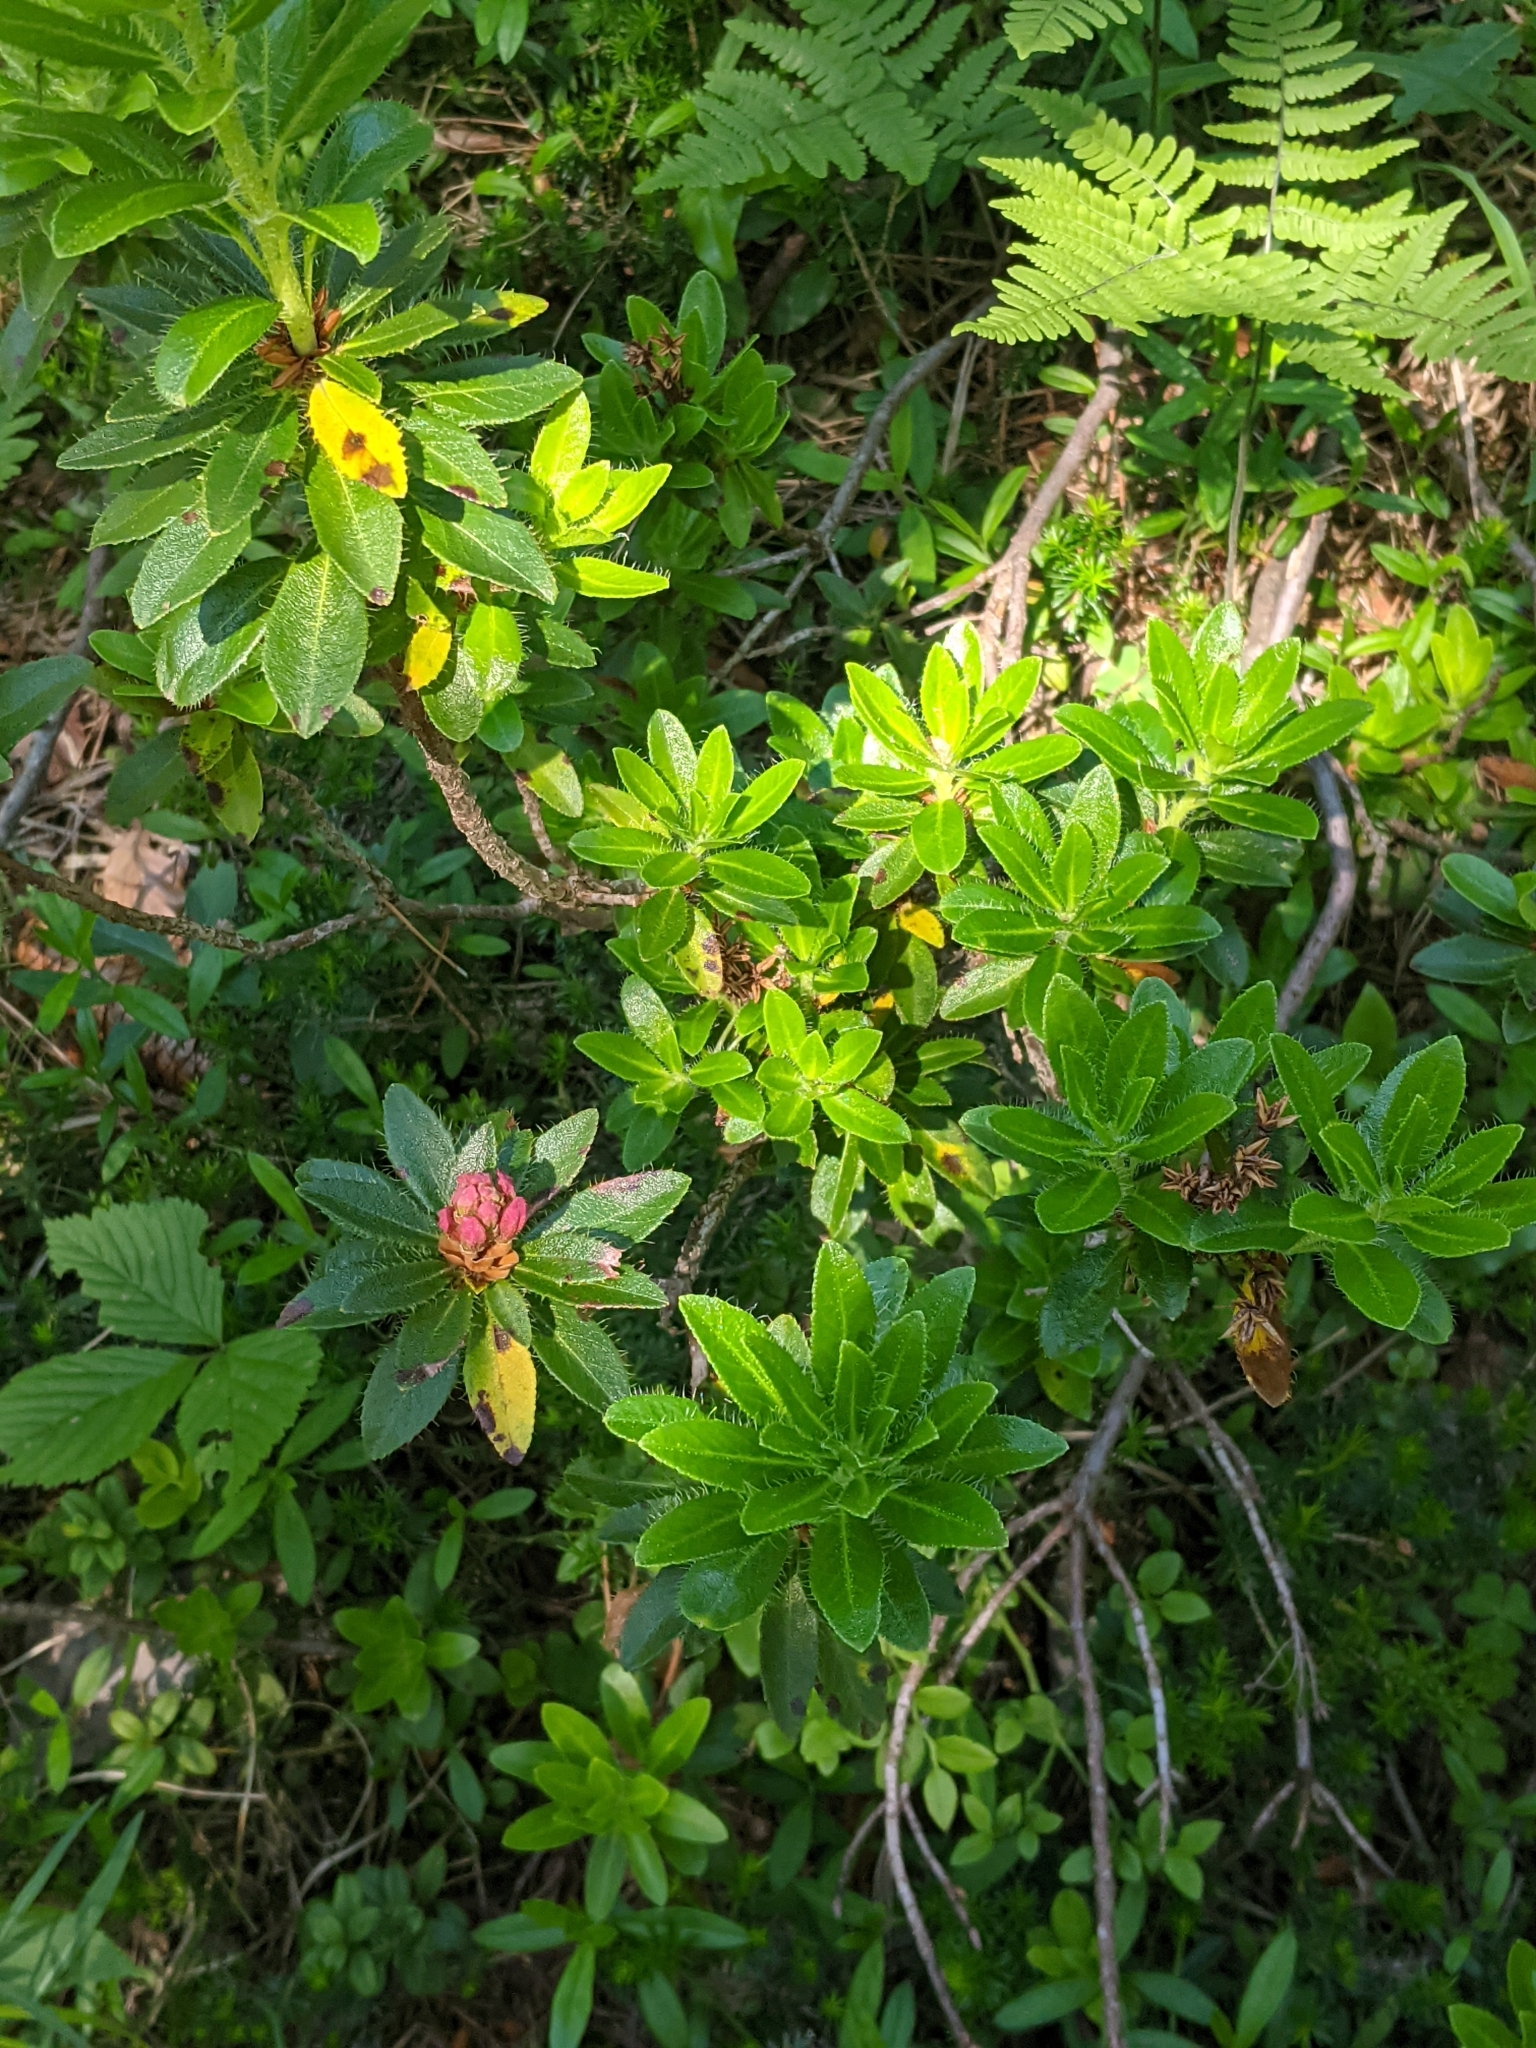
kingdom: Plantae
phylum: Tracheophyta
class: Magnoliopsida
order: Ericales
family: Ericaceae
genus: Rhododendron
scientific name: Rhododendron hirsutum
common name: Hairy alpenrose
